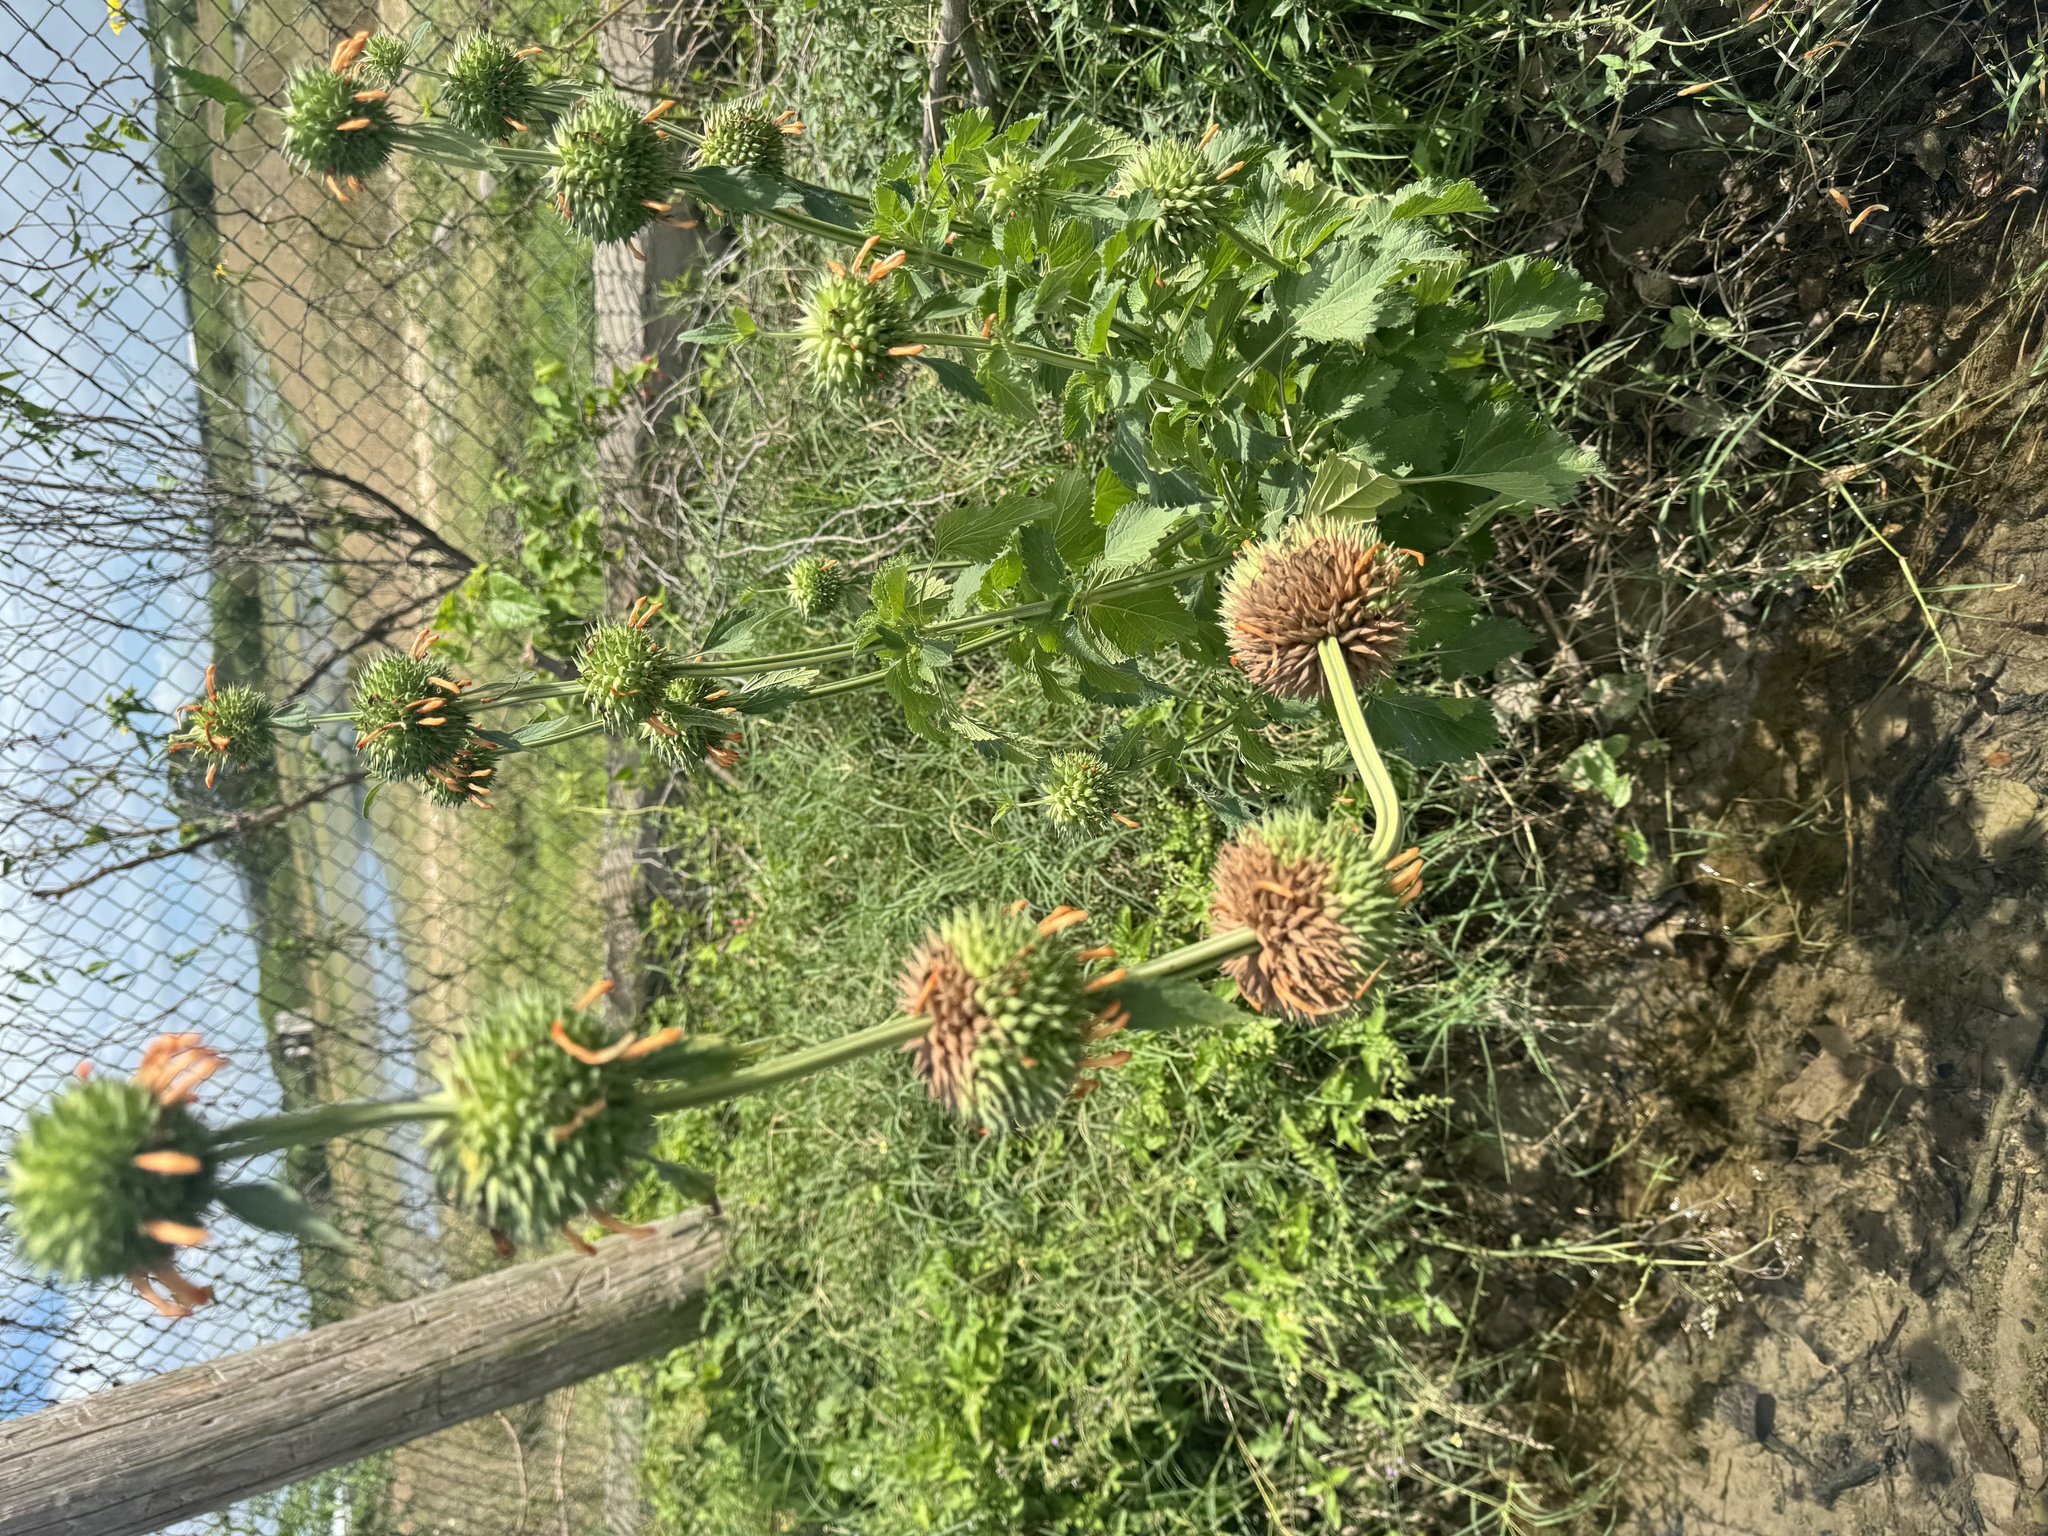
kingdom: Plantae
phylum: Tracheophyta
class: Magnoliopsida
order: Lamiales
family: Lamiaceae
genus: Leonotis
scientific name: Leonotis nepetifolia
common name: Christmas candlestick
